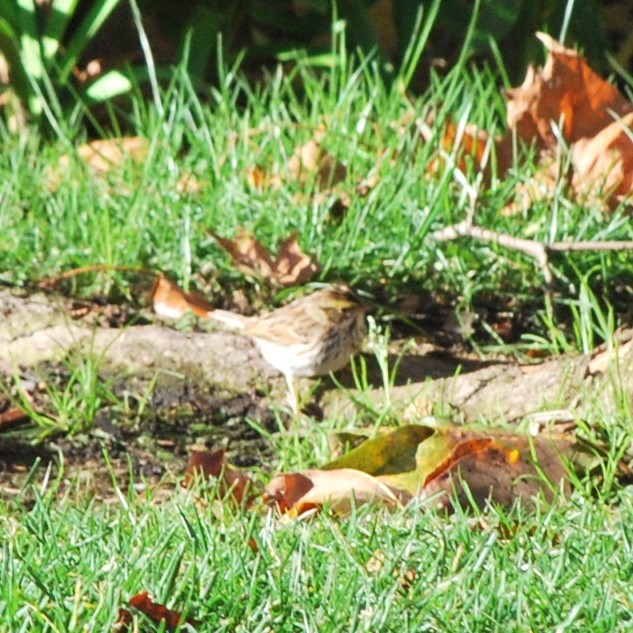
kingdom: Animalia
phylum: Chordata
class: Aves
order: Passeriformes
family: Passerellidae
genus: Passerculus
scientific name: Passerculus sandwichensis
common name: Savannah sparrow
